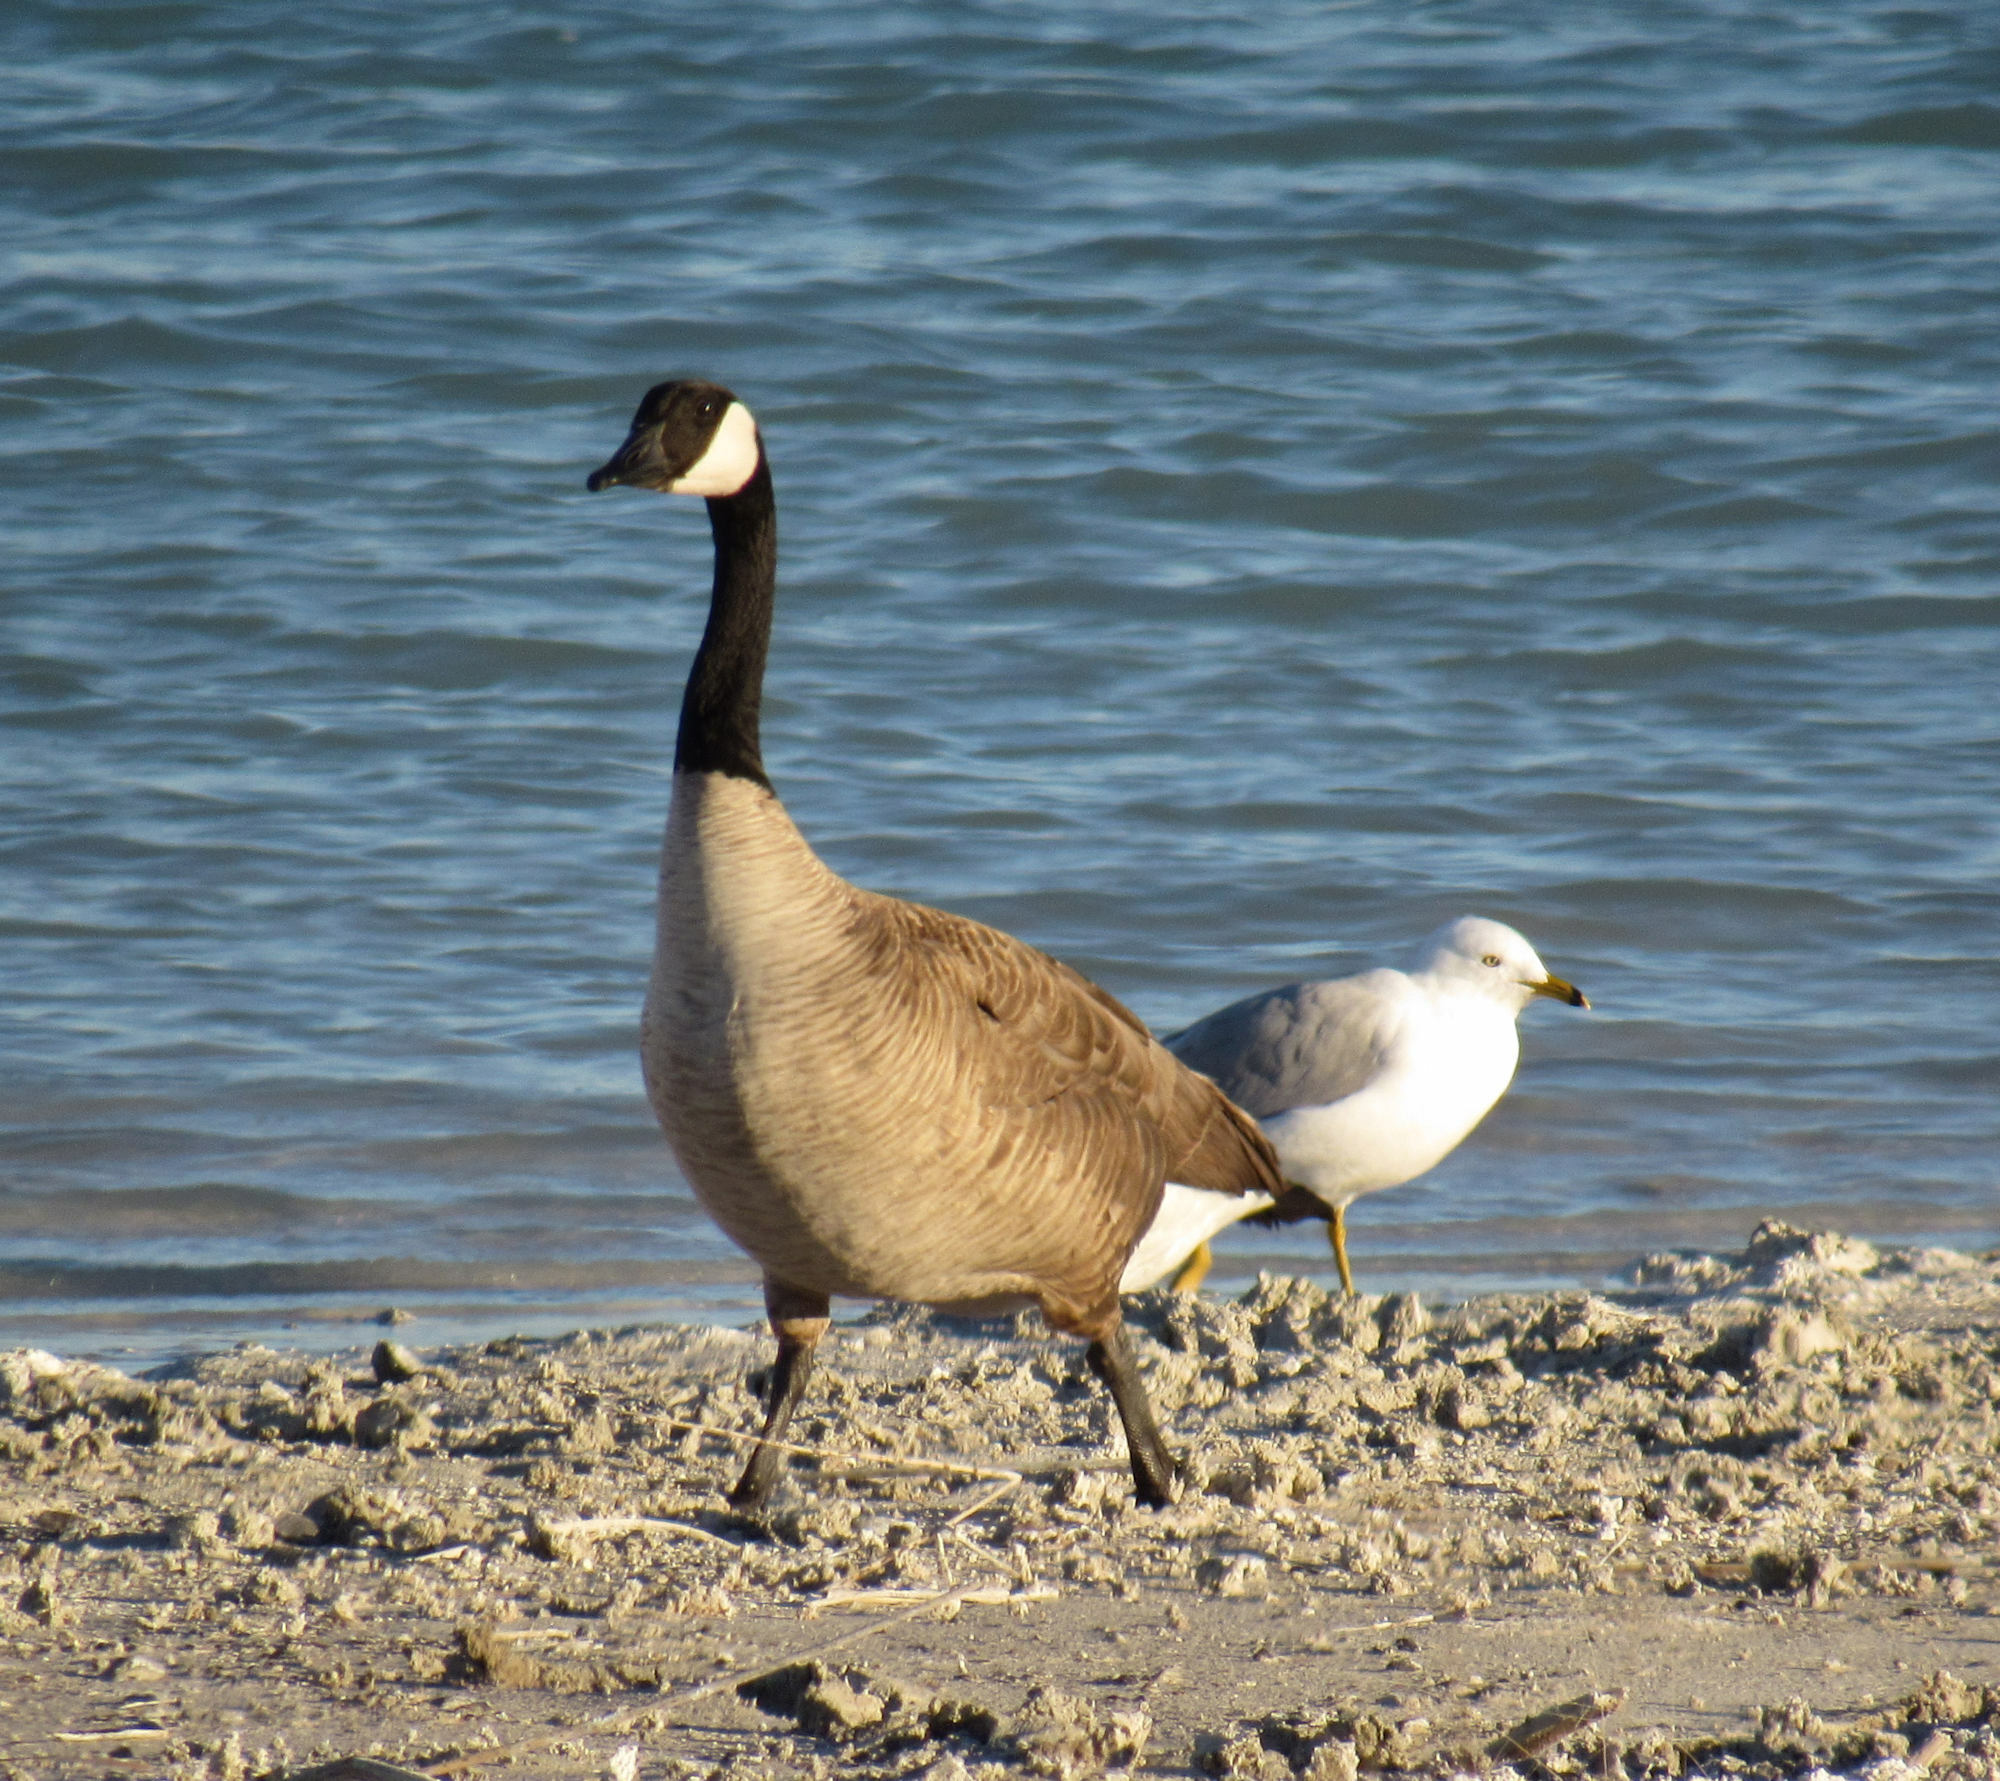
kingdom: Animalia
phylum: Chordata
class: Aves
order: Charadriiformes
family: Laridae
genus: Larus
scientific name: Larus delawarensis
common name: Ring-billed gull
